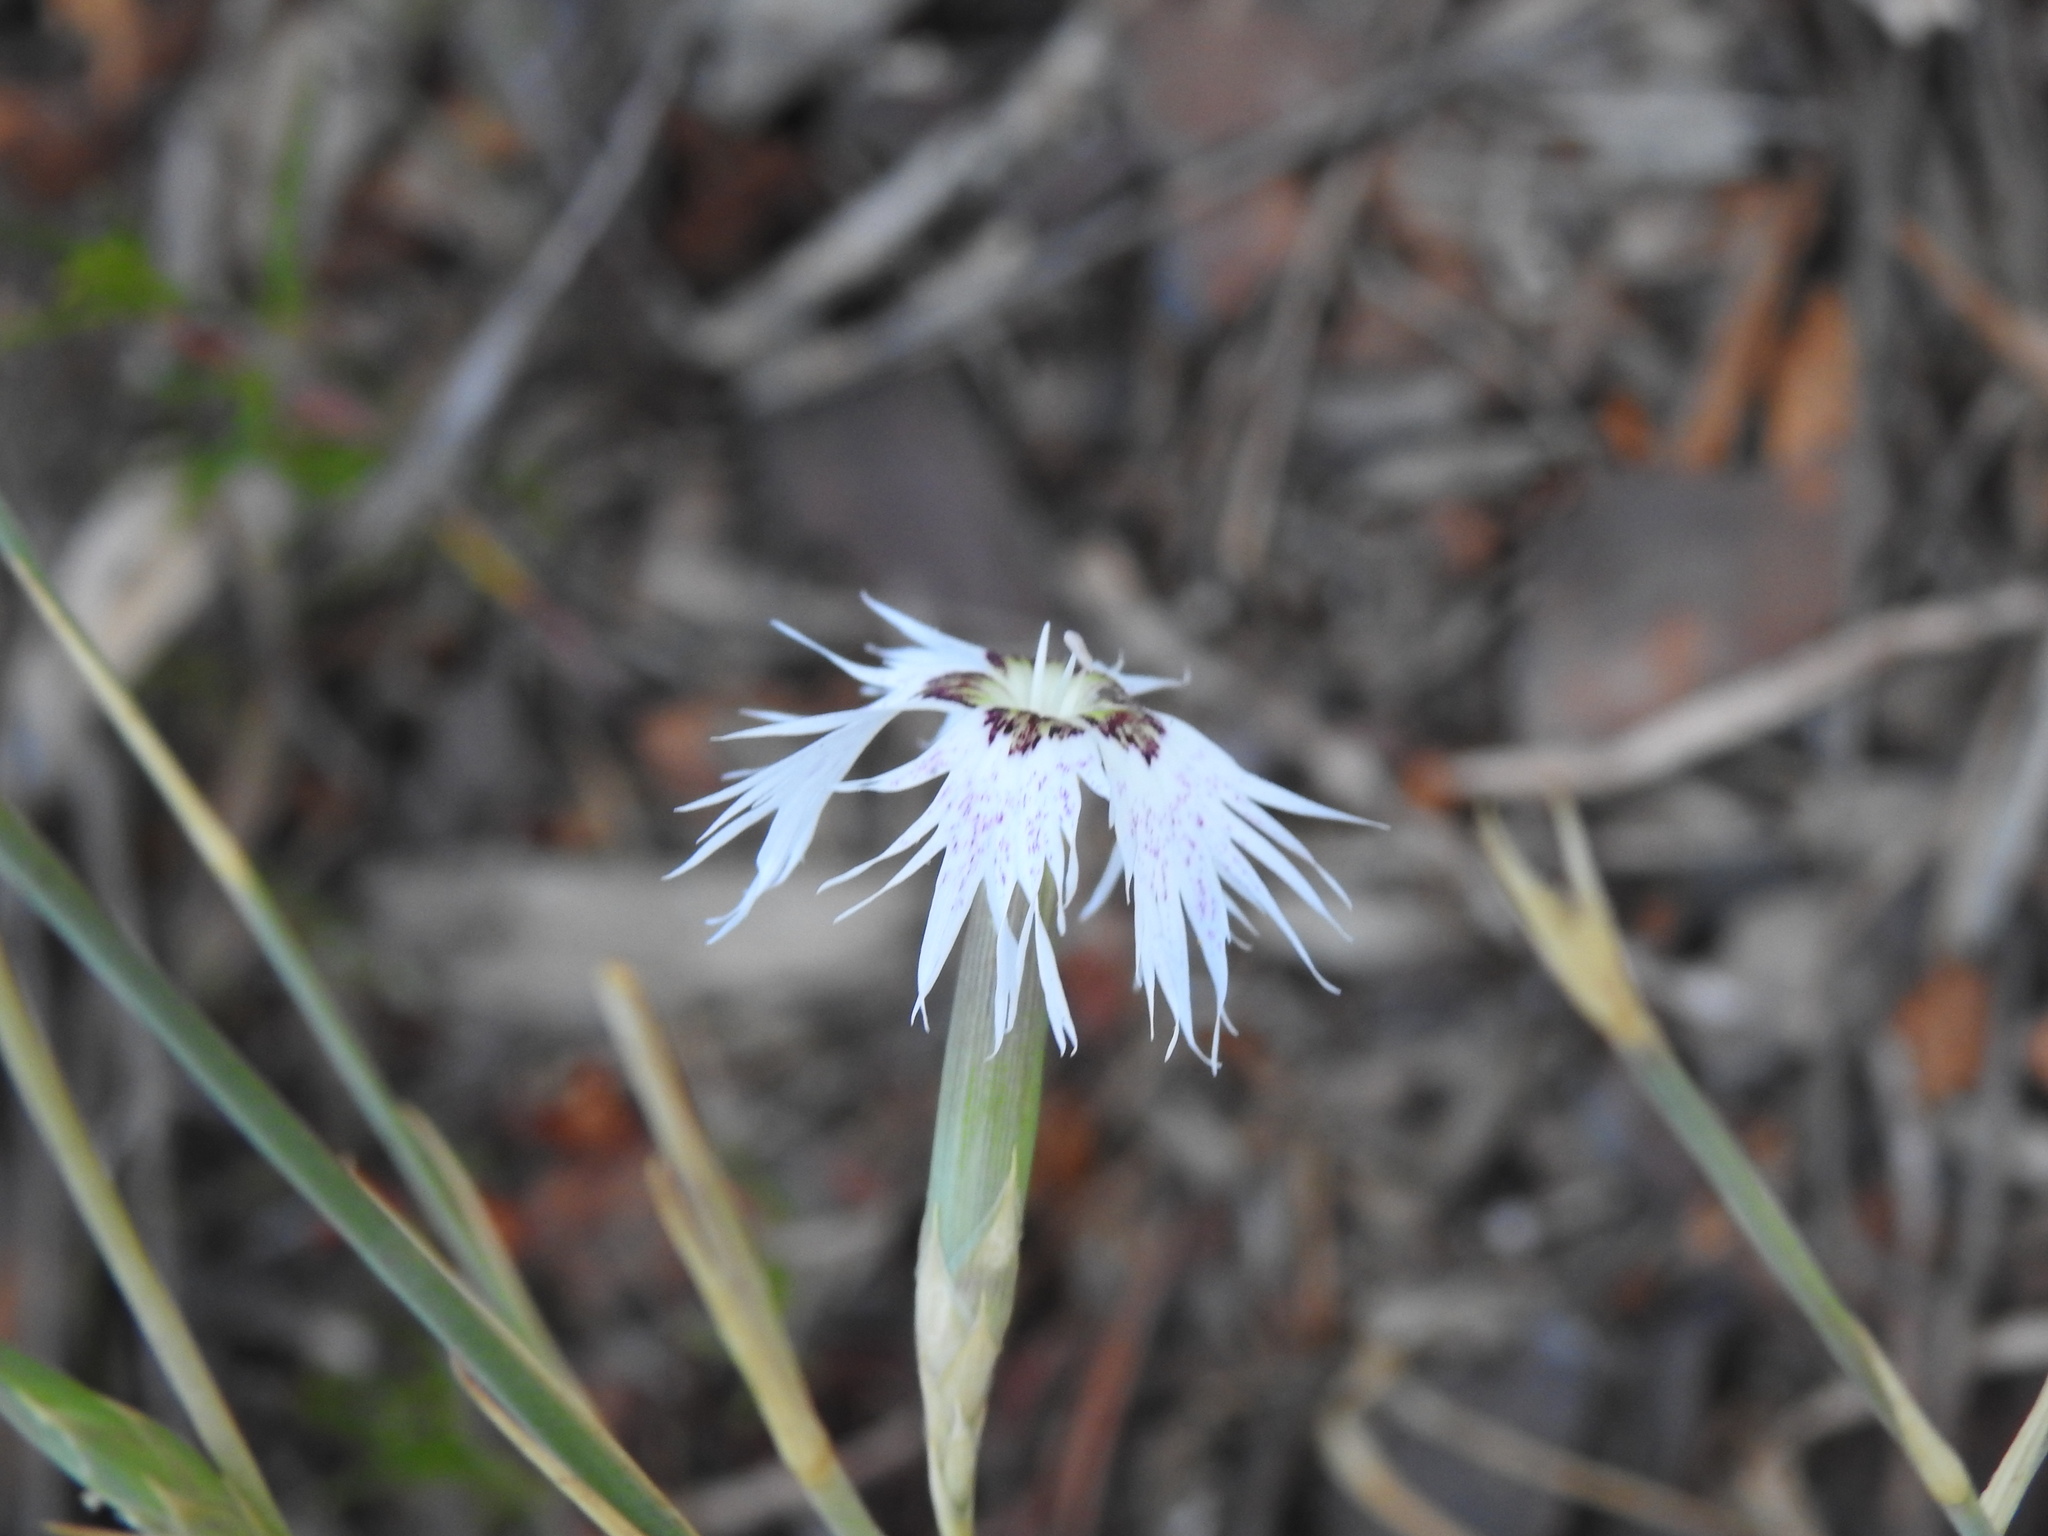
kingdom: Plantae
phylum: Tracheophyta
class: Magnoliopsida
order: Caryophyllales
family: Caryophyllaceae
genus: Dianthus
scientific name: Dianthus broteri
